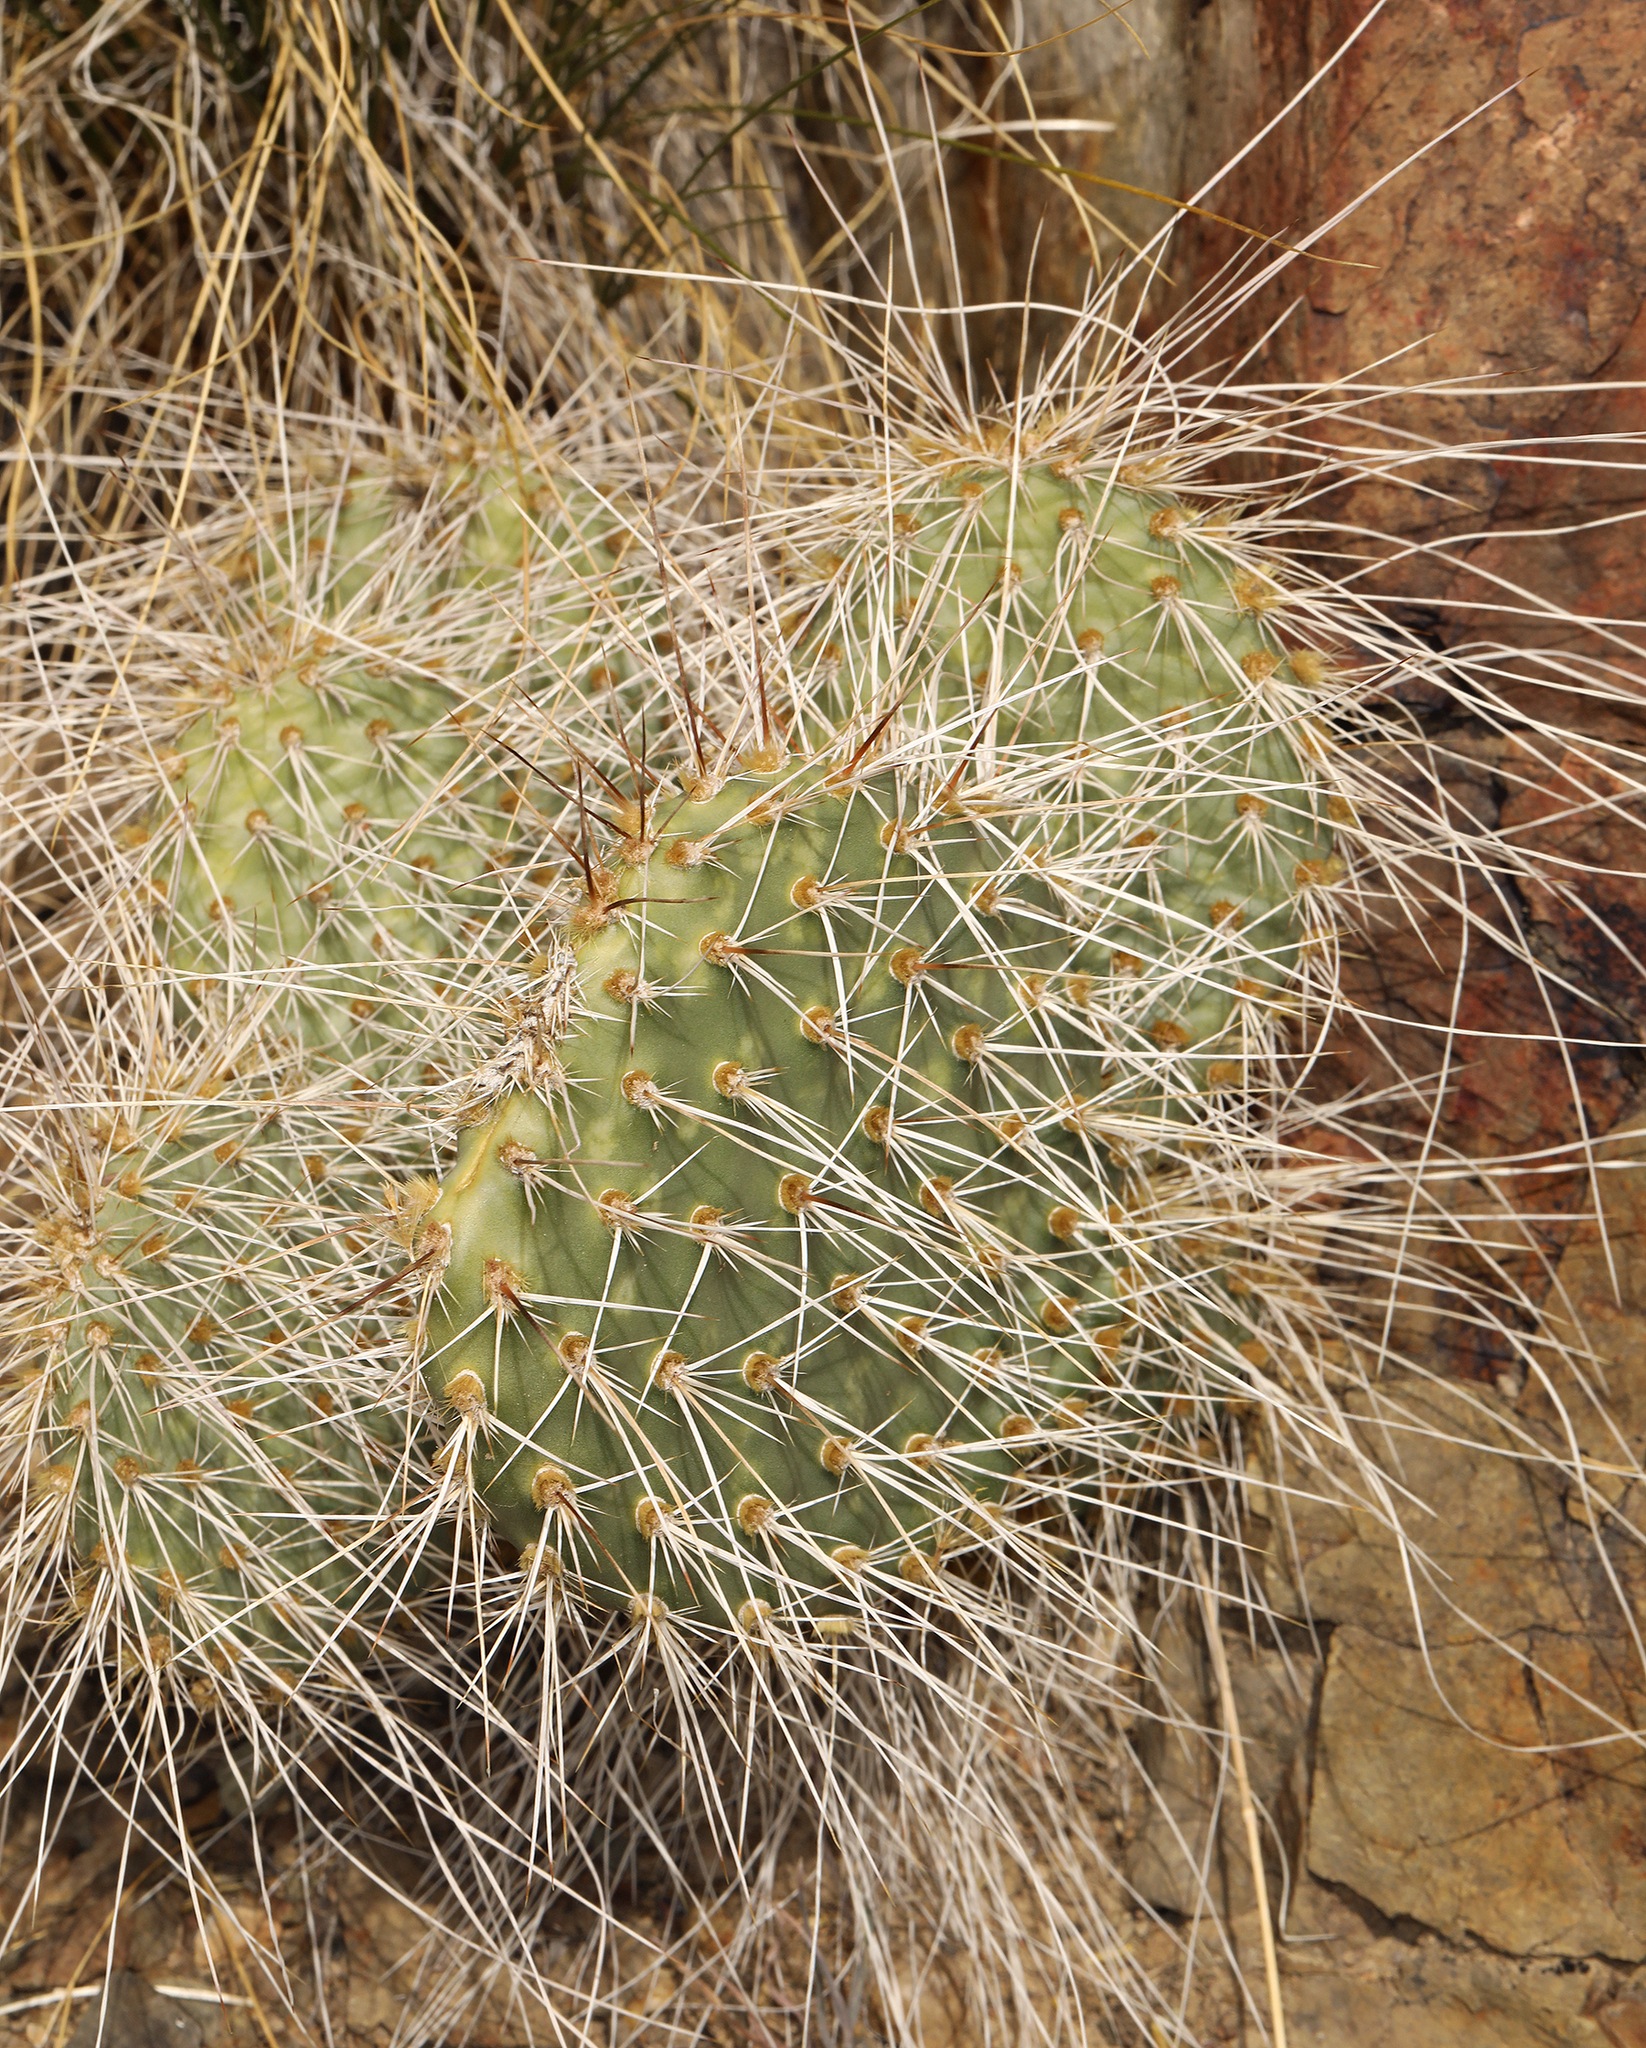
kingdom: Plantae
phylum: Tracheophyta
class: Magnoliopsida
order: Caryophyllales
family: Cactaceae
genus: Opuntia
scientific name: Opuntia polyacantha
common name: Plains prickly-pear
